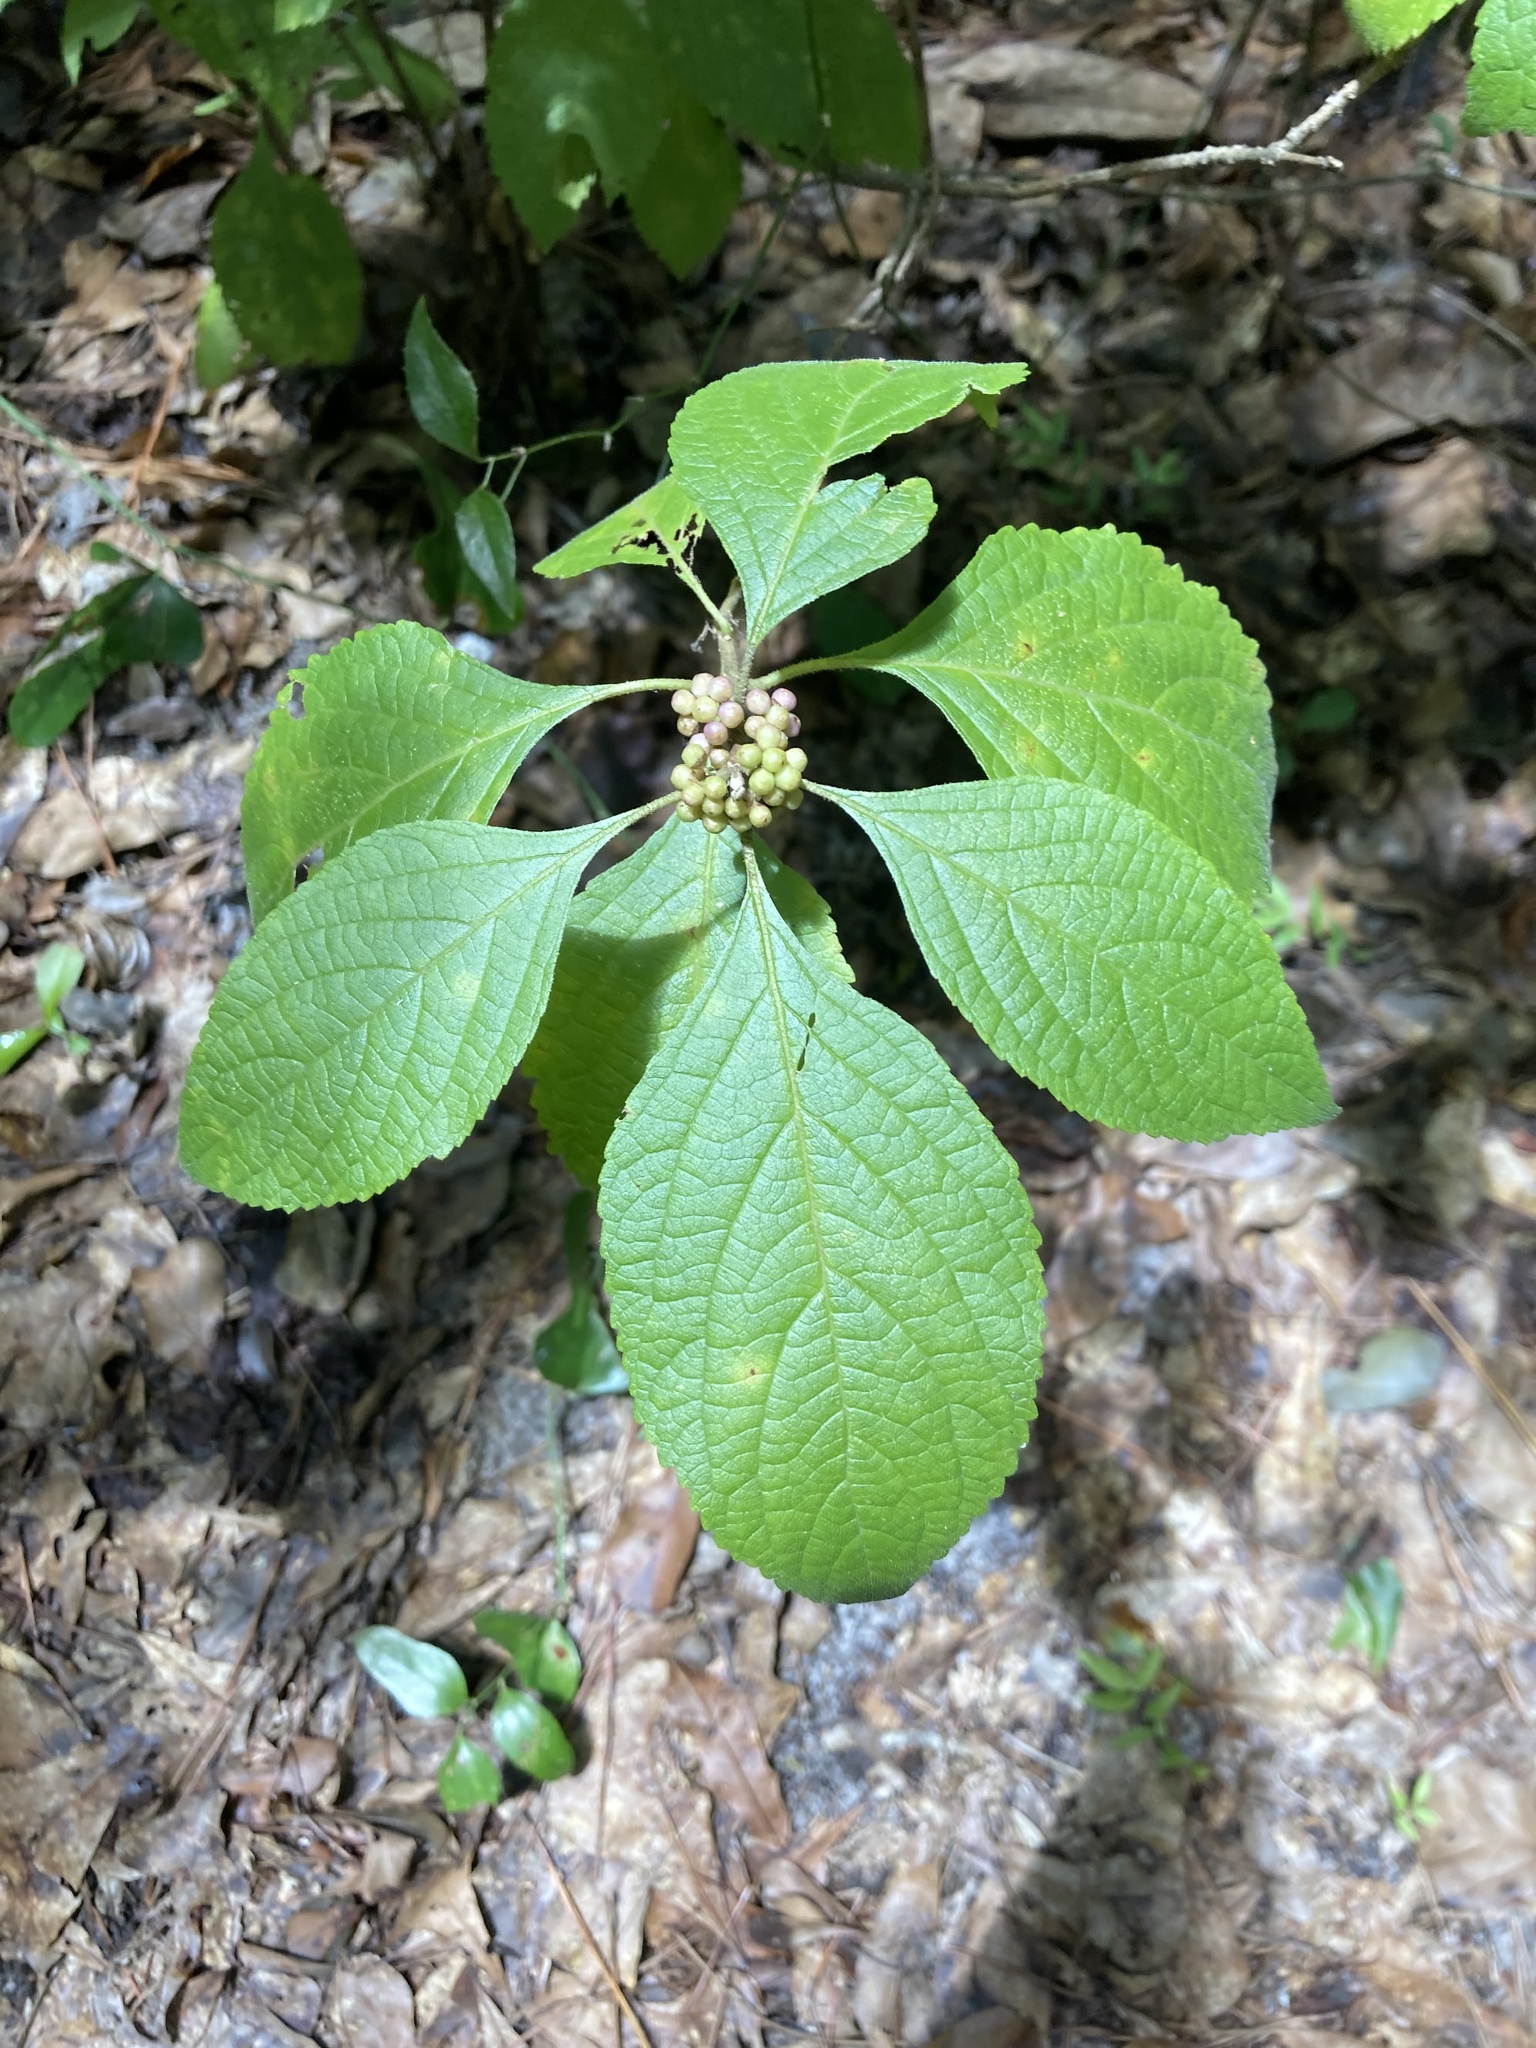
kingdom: Plantae
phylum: Tracheophyta
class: Magnoliopsida
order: Lamiales
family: Lamiaceae
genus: Callicarpa
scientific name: Callicarpa americana
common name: American beautyberry
